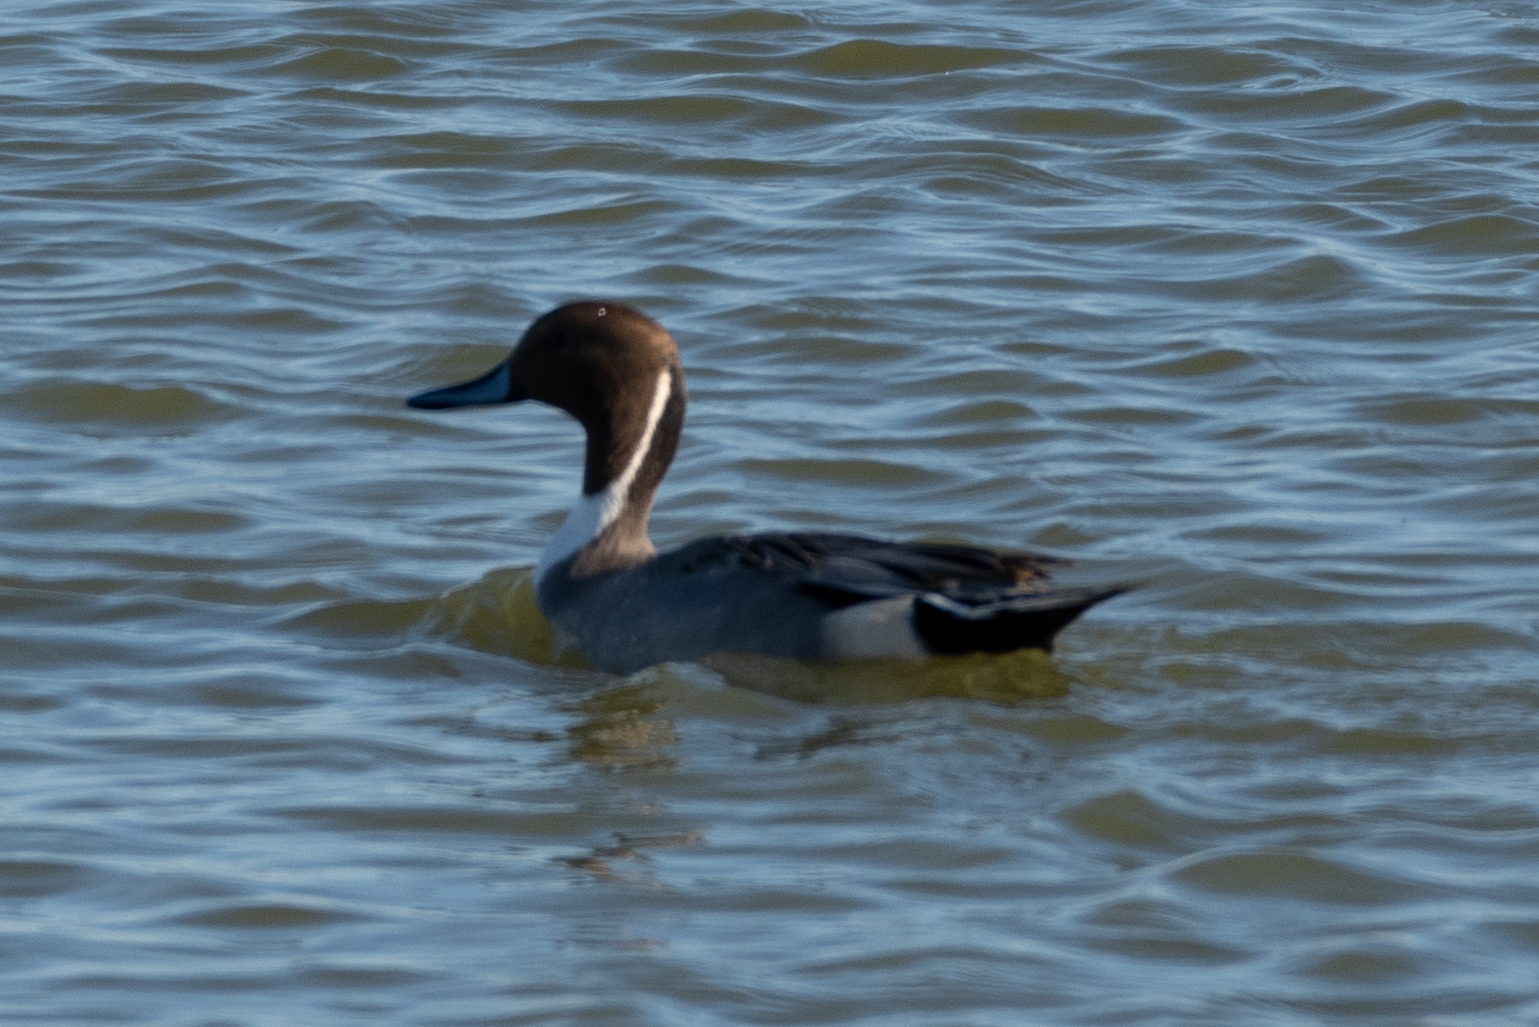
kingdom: Animalia
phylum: Chordata
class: Aves
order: Anseriformes
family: Anatidae
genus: Anas
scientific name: Anas acuta
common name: Northern pintail
